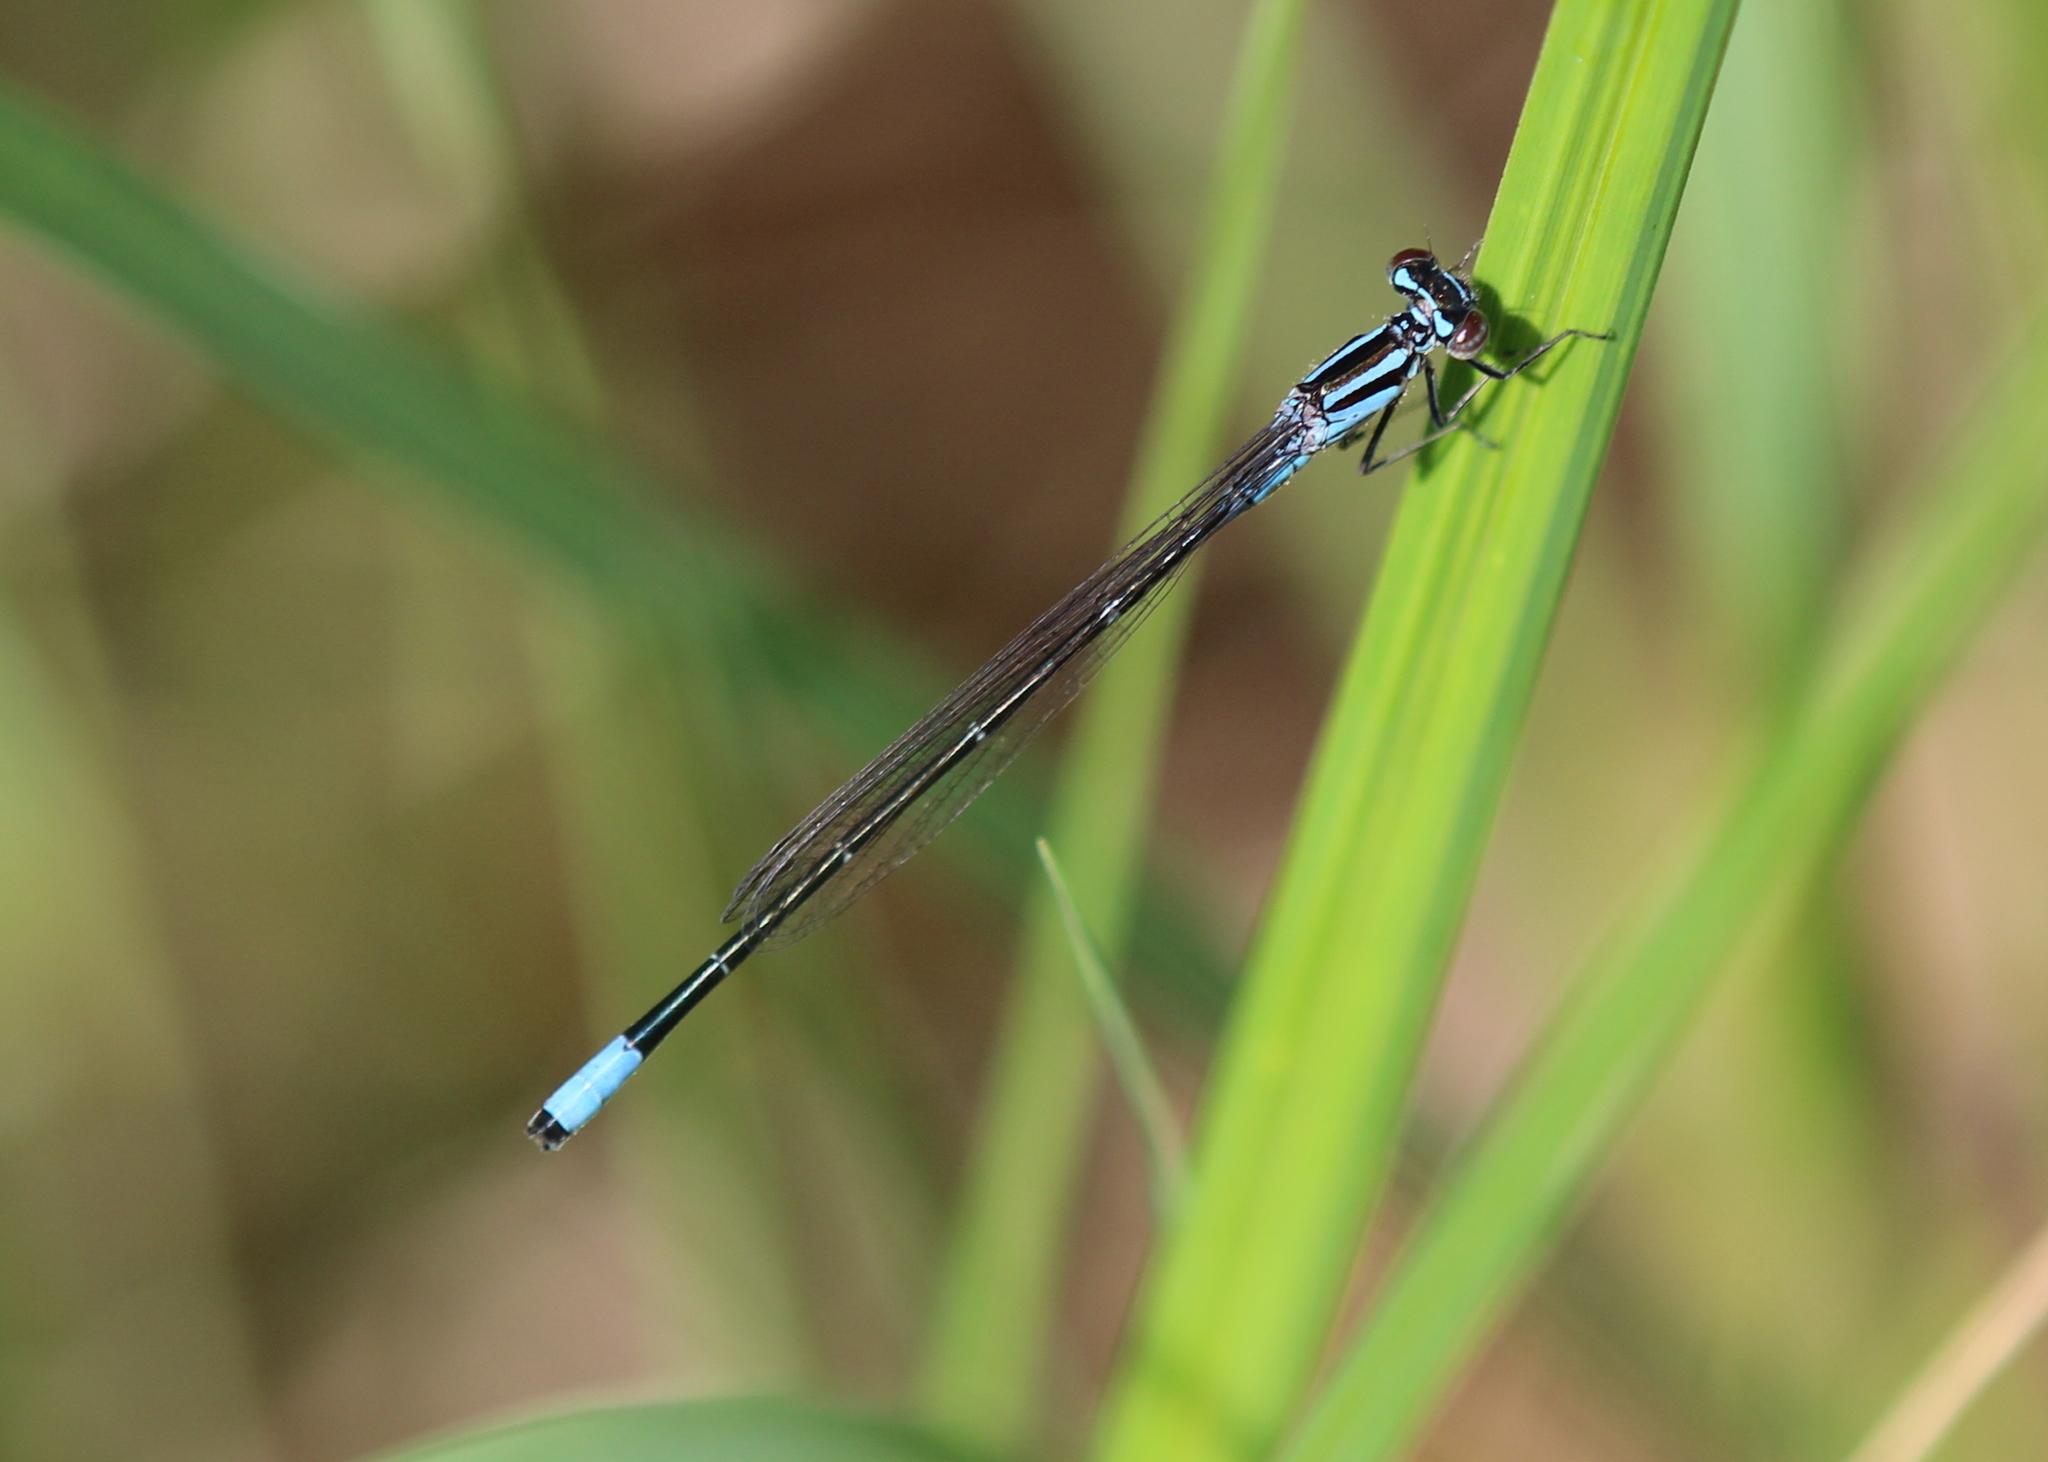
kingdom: Animalia
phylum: Arthropoda
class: Insecta
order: Odonata
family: Coenagrionidae
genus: Enallagma
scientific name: Enallagma divagans
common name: Turquoise bluet
